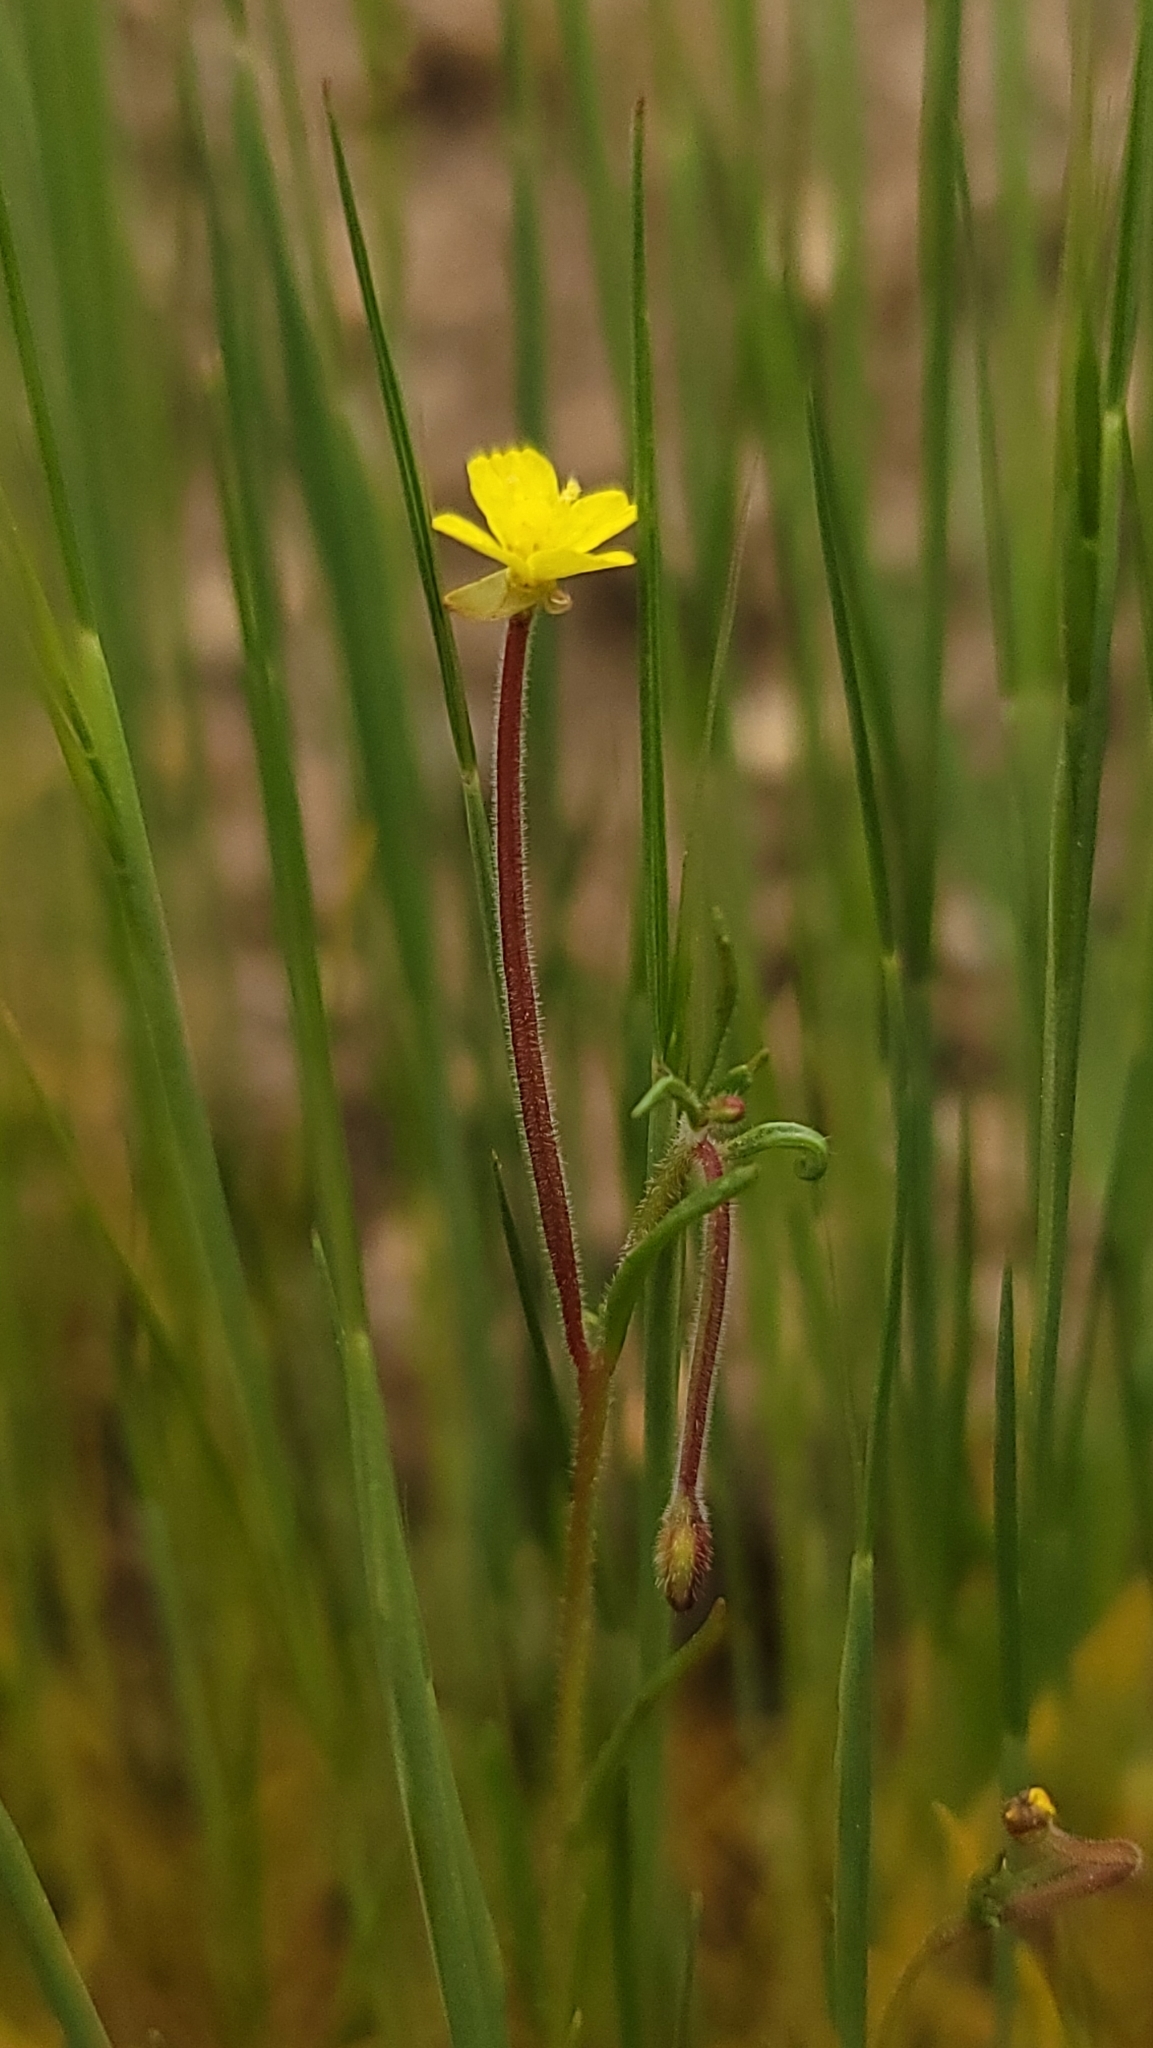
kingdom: Plantae
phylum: Tracheophyta
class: Magnoliopsida
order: Myrtales
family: Onagraceae
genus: Camissonia
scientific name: Camissonia sierrae
